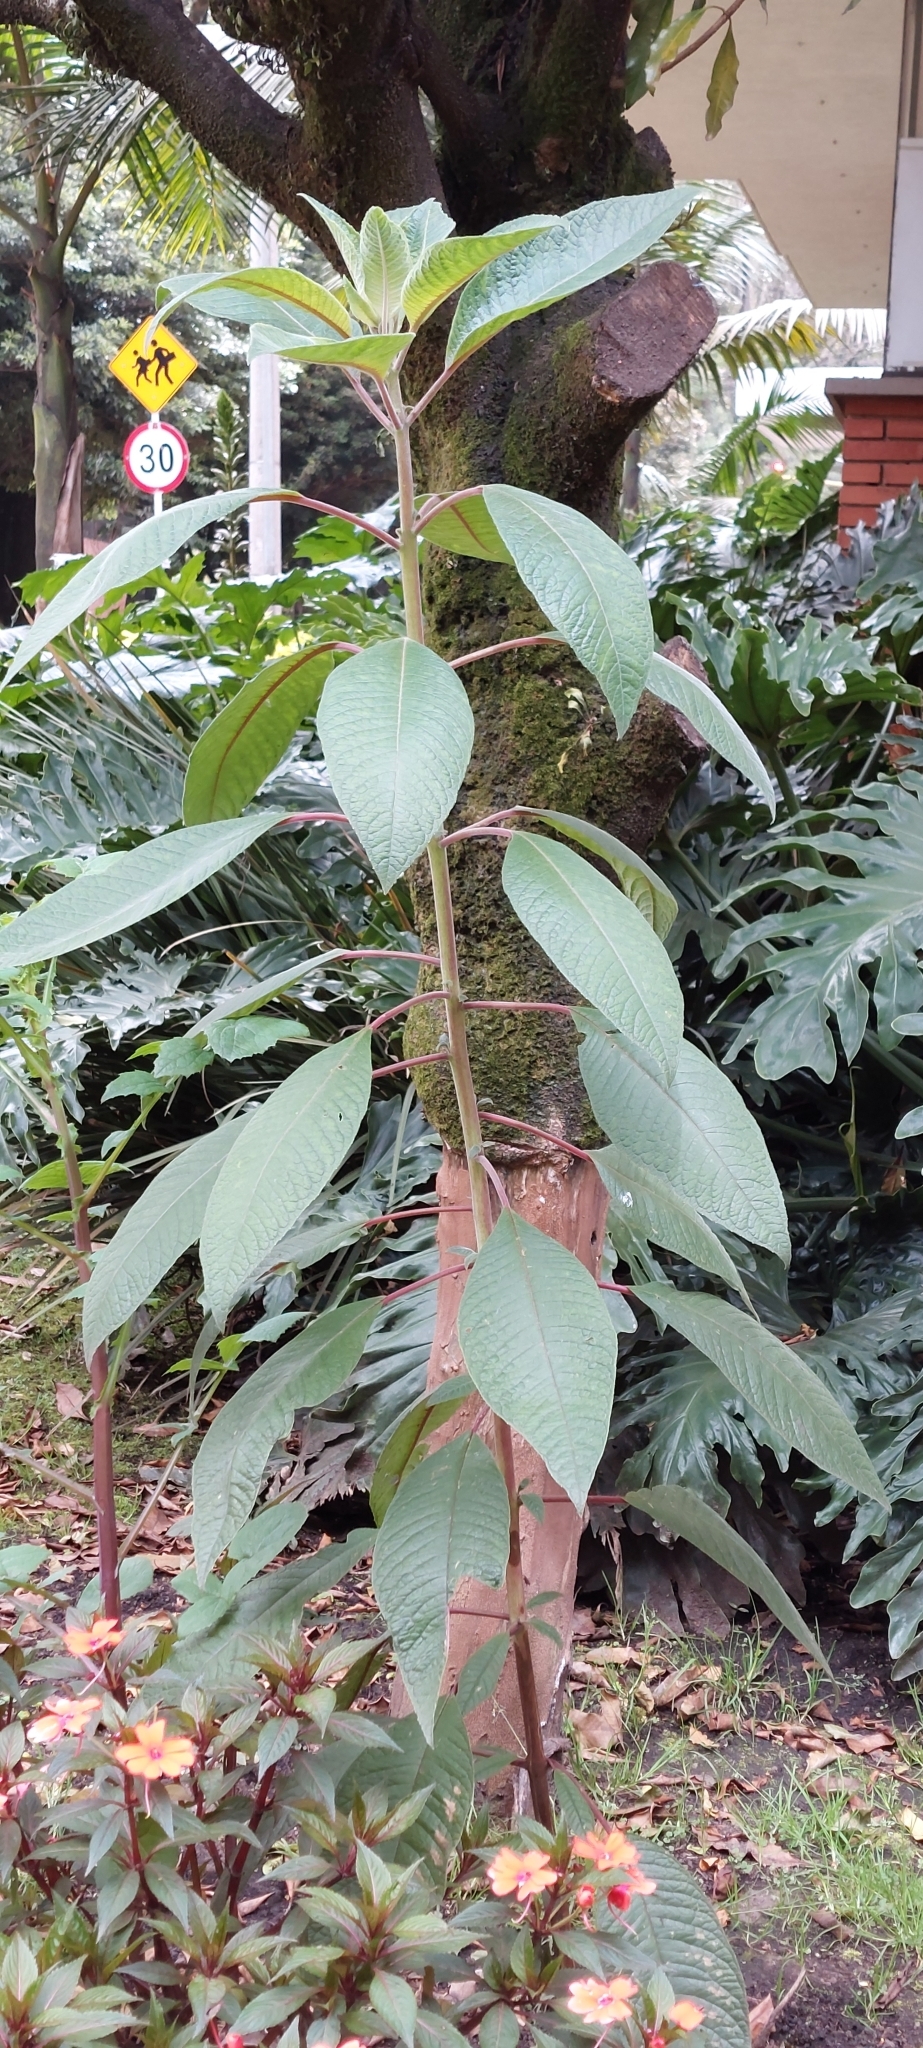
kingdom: Plantae
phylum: Tracheophyta
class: Magnoliopsida
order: Myrtales
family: Onagraceae
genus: Fuchsia
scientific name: Fuchsia boliviana
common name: Bolivian fuchsia
